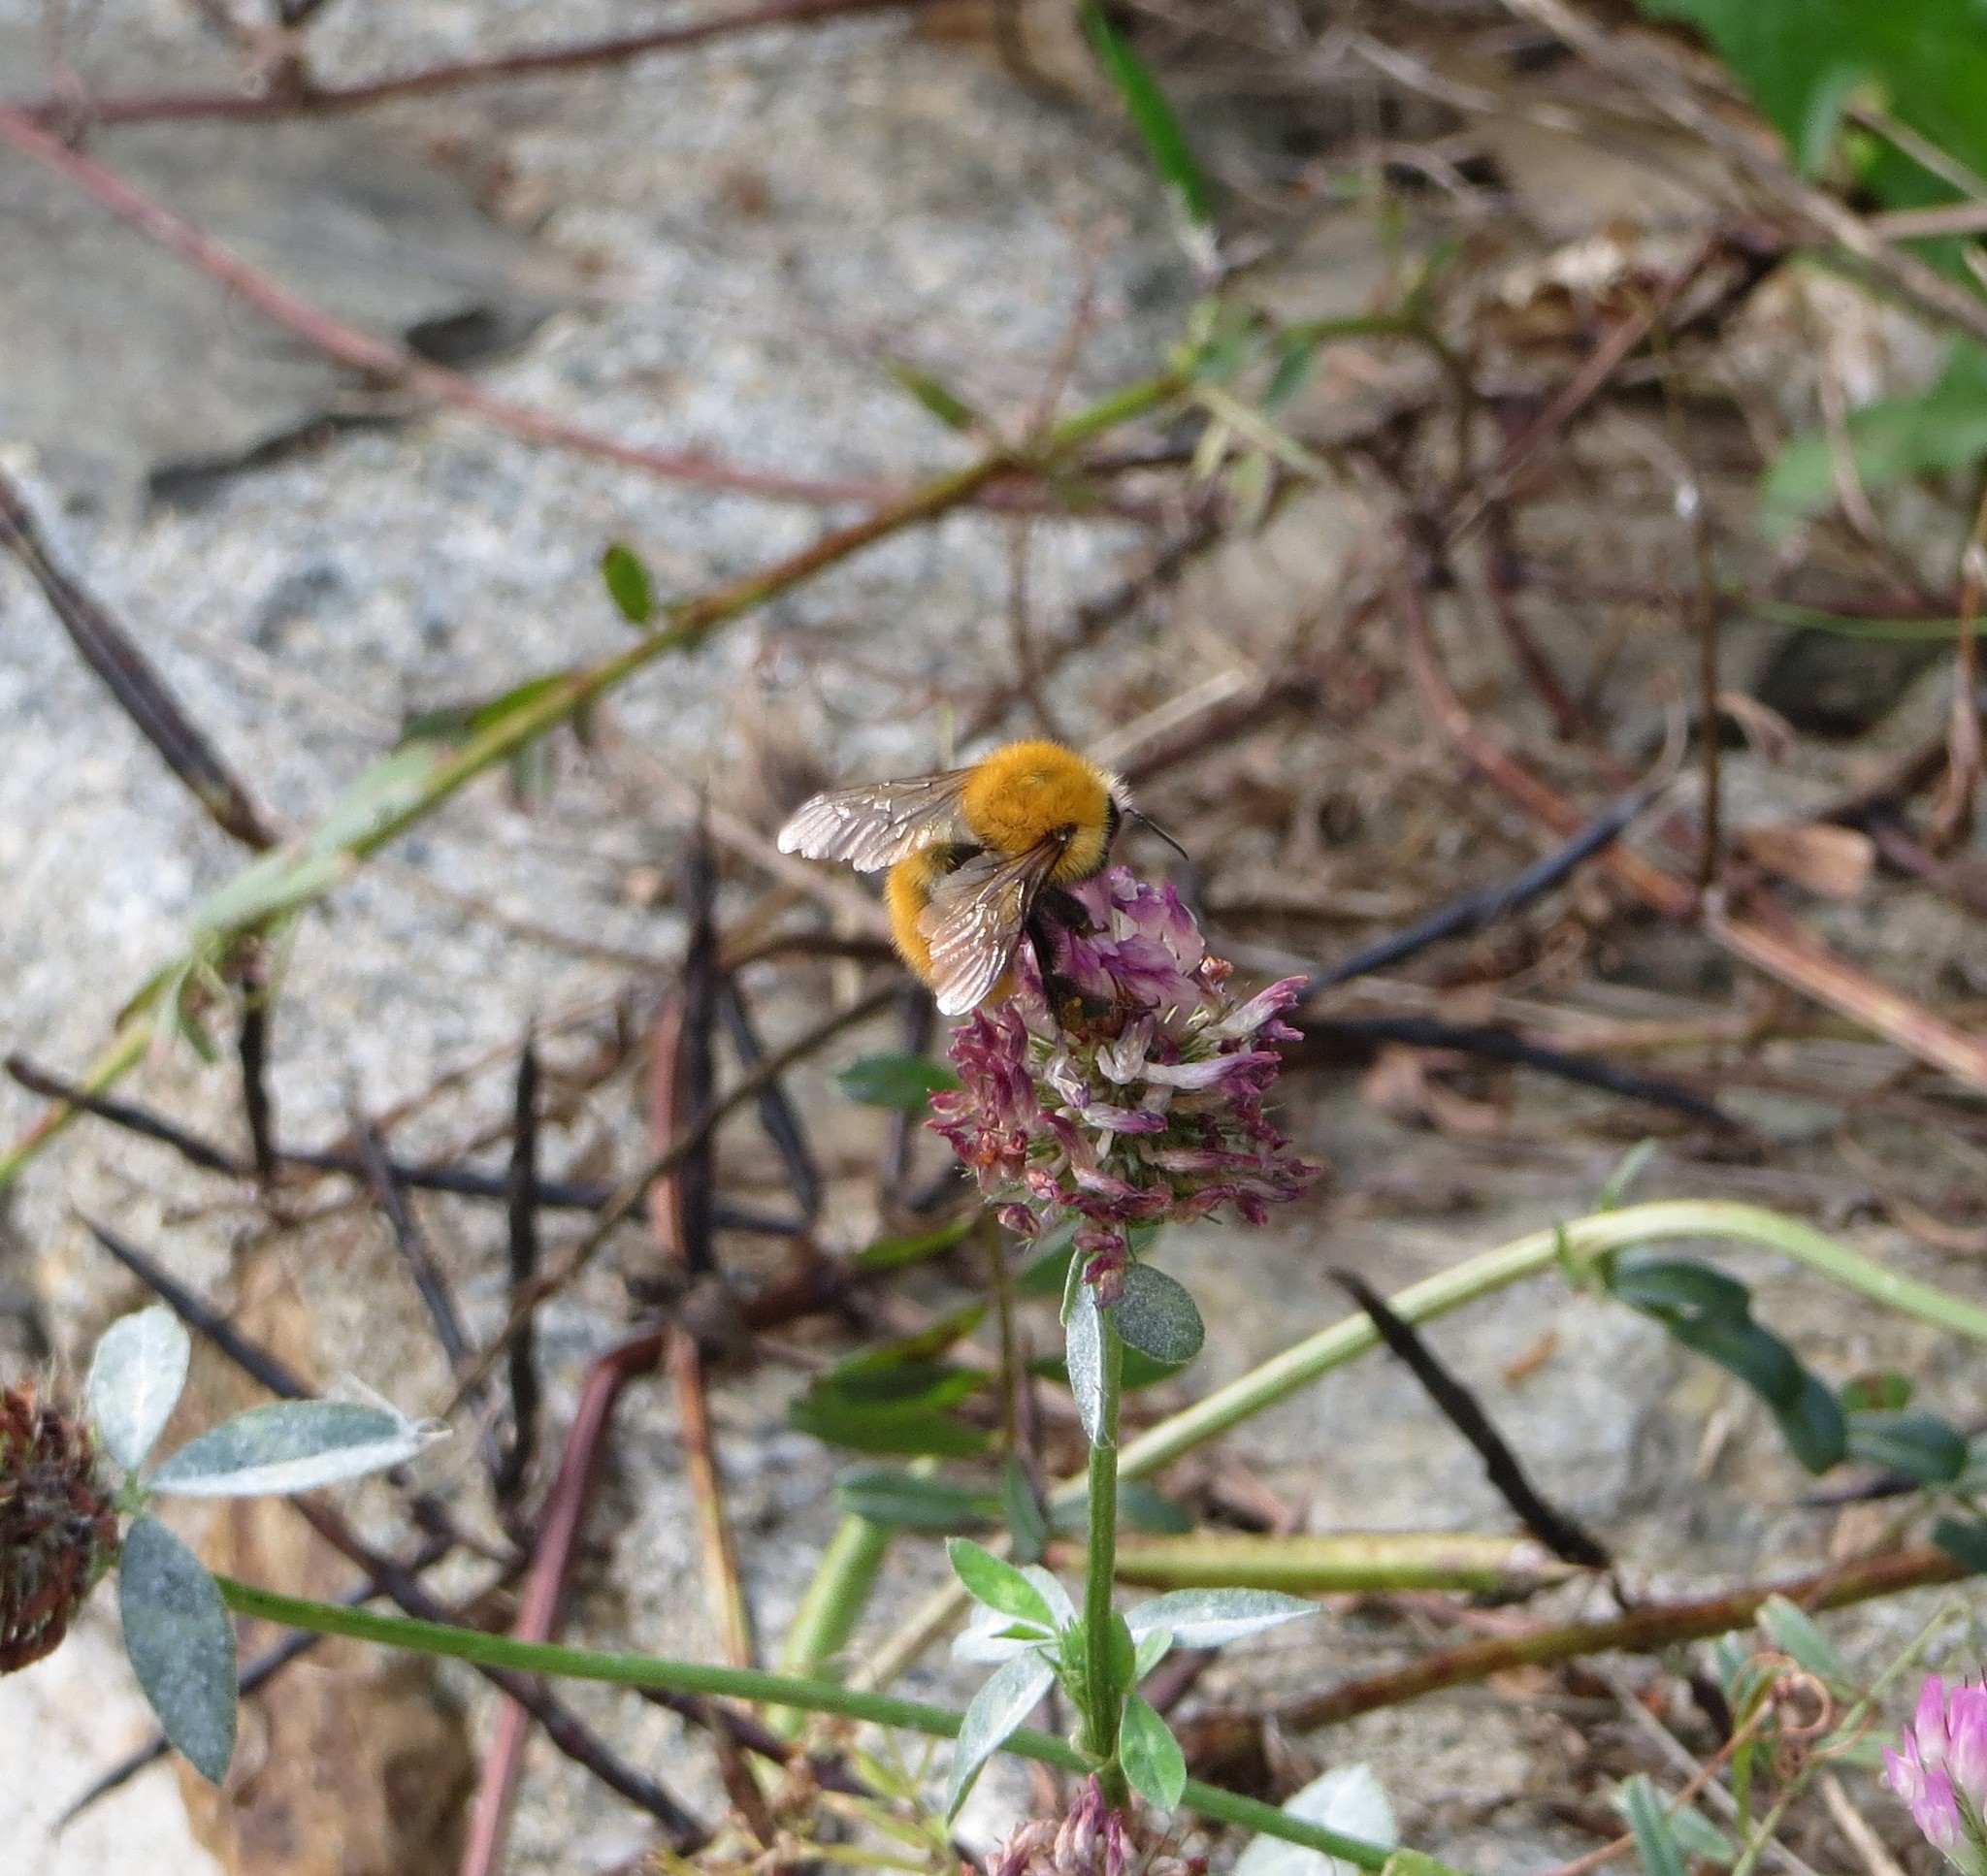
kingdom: Animalia
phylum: Arthropoda
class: Insecta
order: Hymenoptera
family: Apidae
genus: Bombus
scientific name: Bombus pascuorum
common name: Common carder bee
